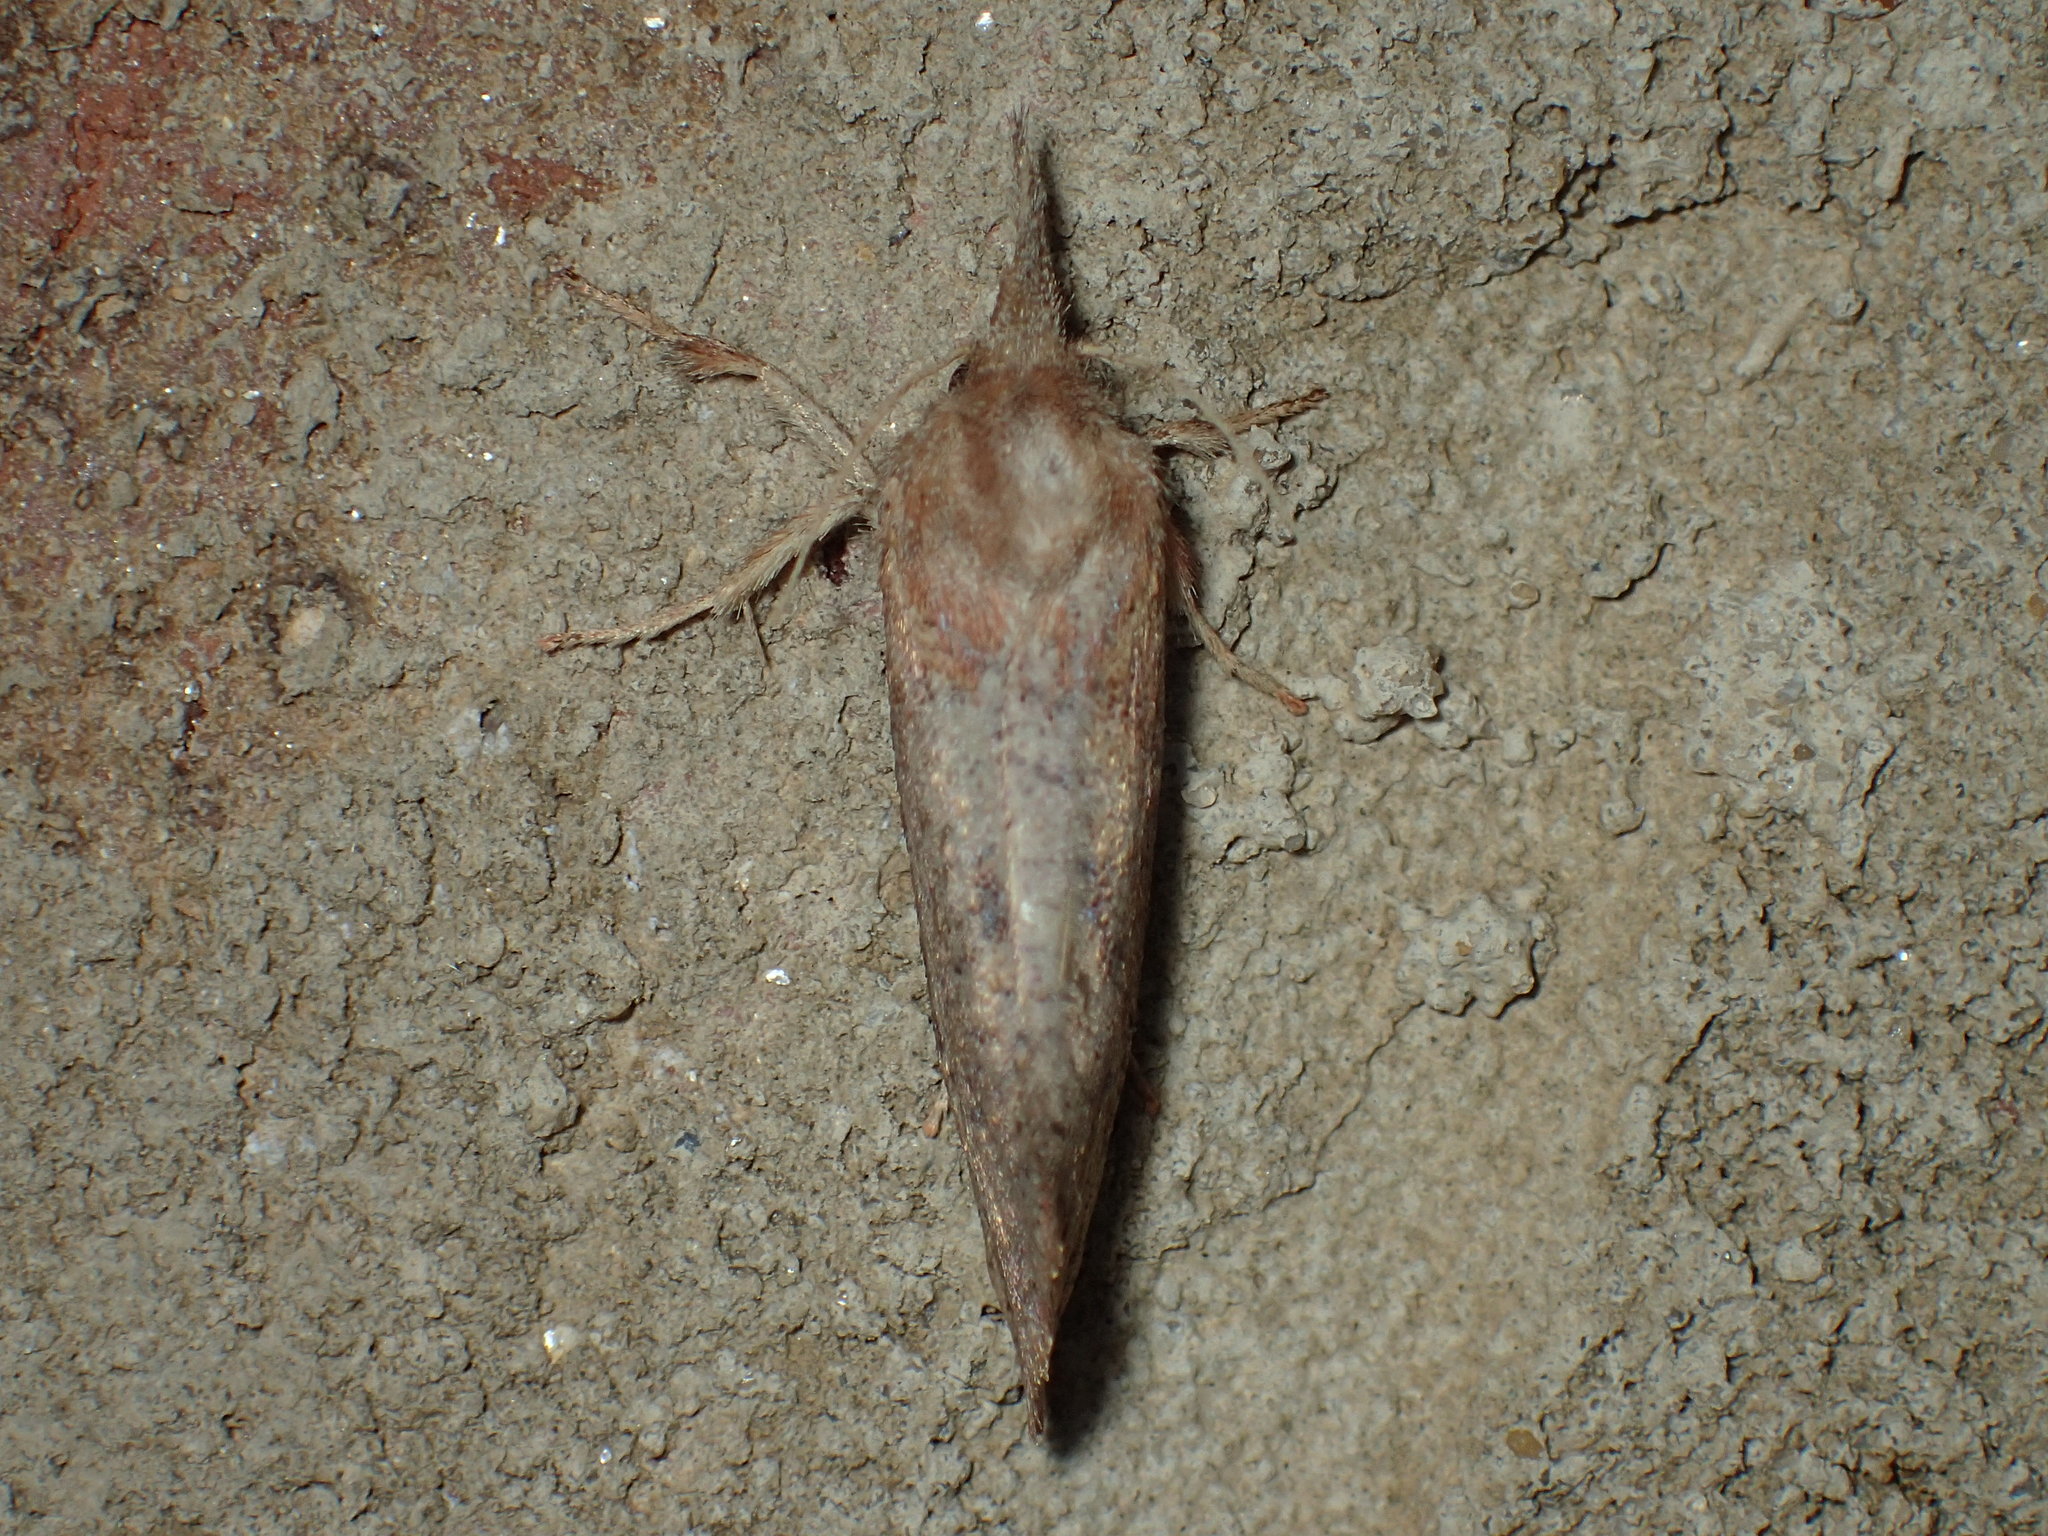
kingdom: Animalia
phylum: Arthropoda
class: Insecta
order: Lepidoptera
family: Tineidae
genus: Acrolophus
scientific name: Acrolophus plumifrontella
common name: Eastern grass tubeworm moth
